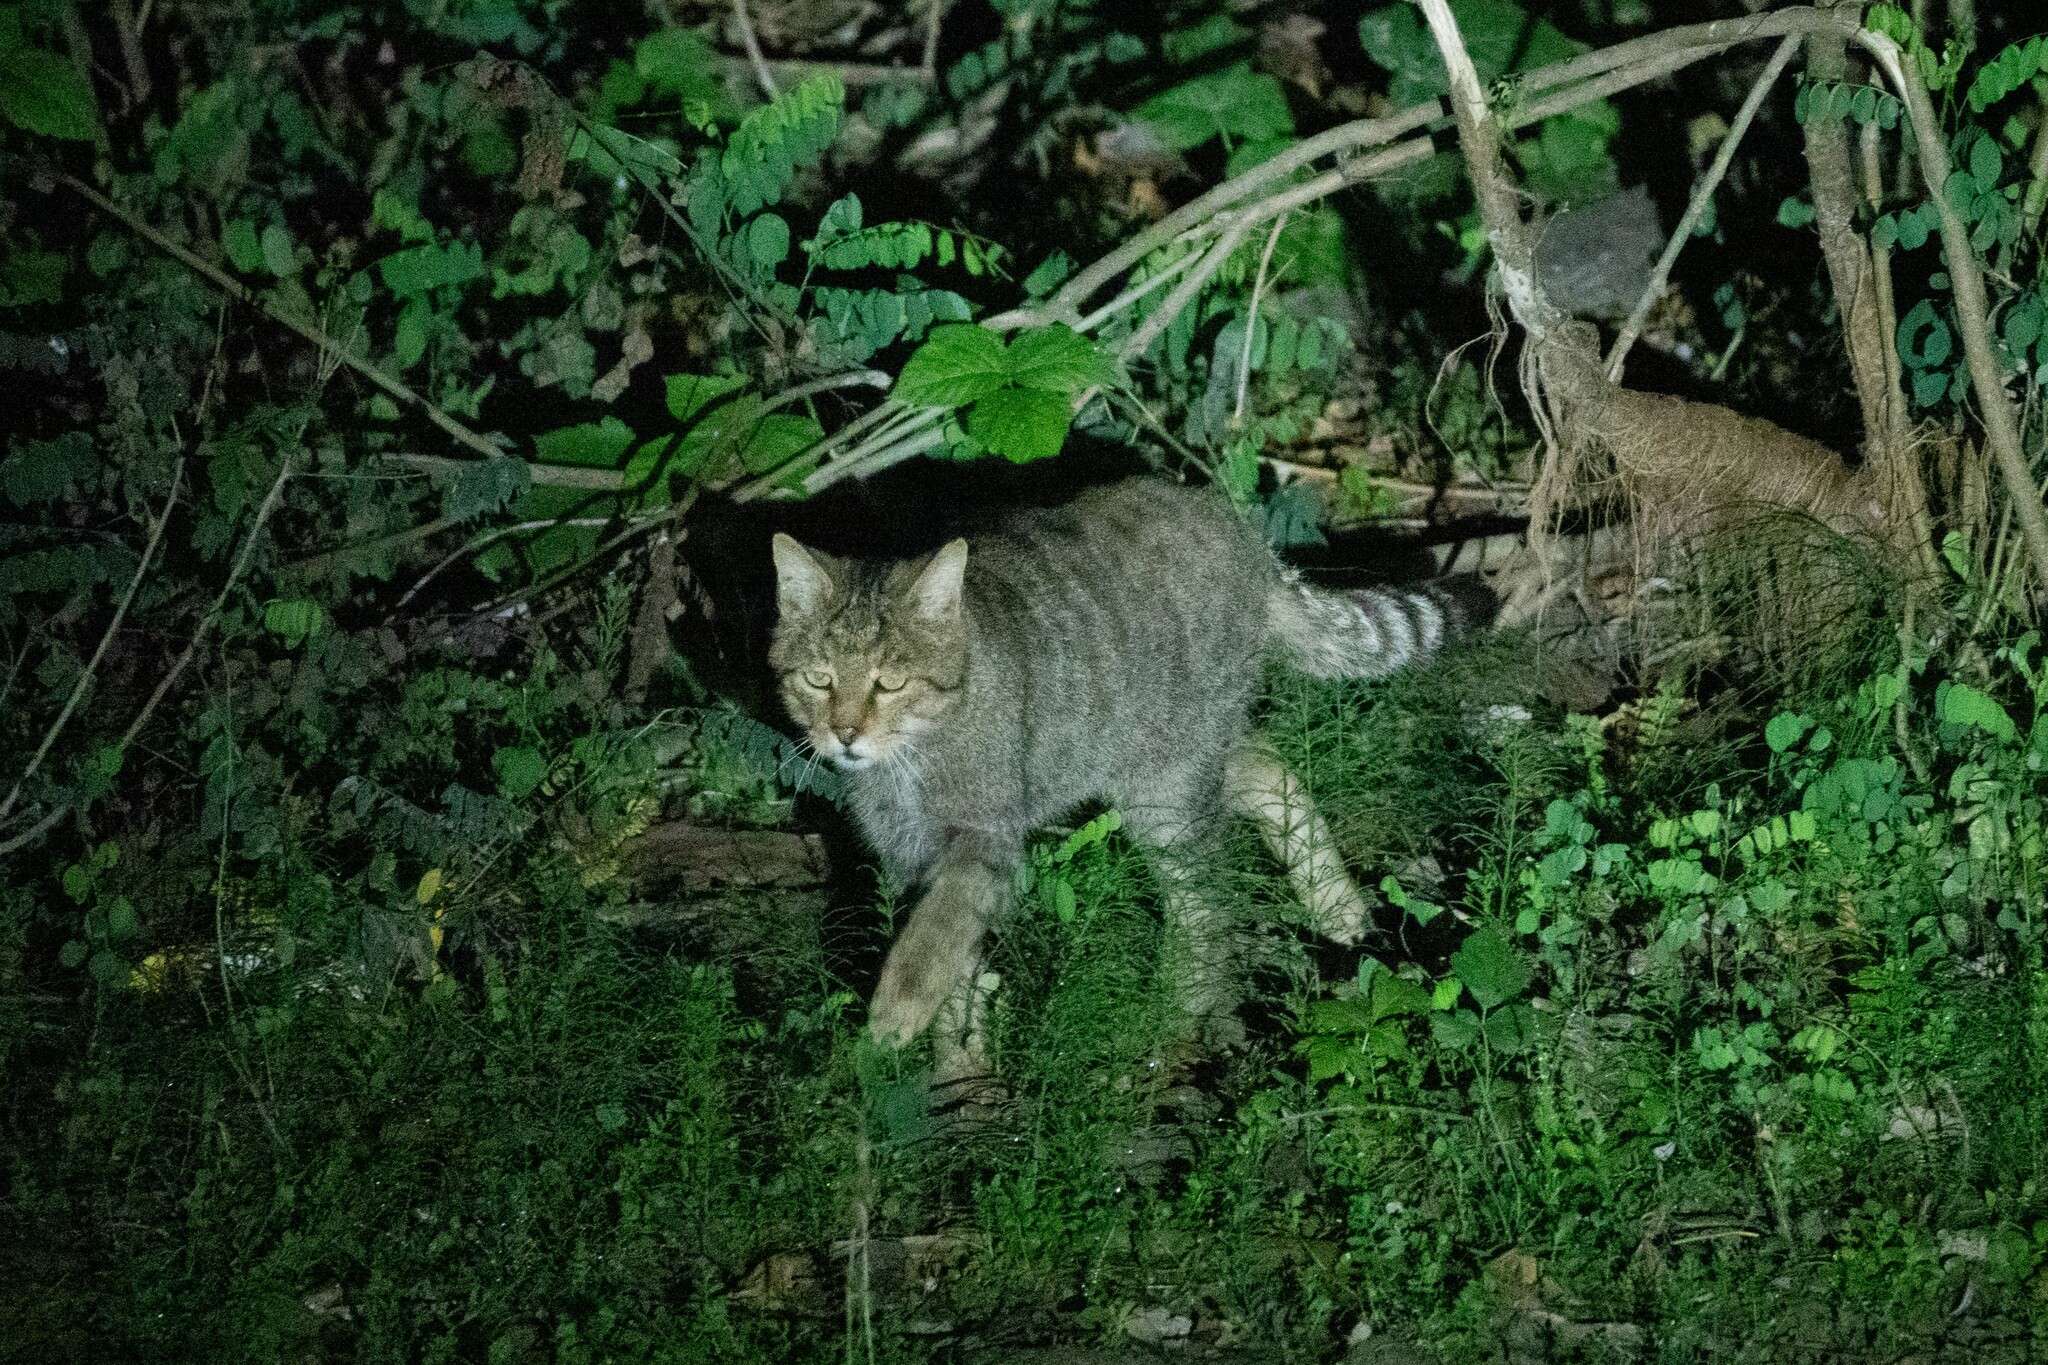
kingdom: Animalia
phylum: Chordata
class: Mammalia
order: Carnivora
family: Felidae
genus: Felis
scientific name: Felis silvestris
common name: Wildcat
